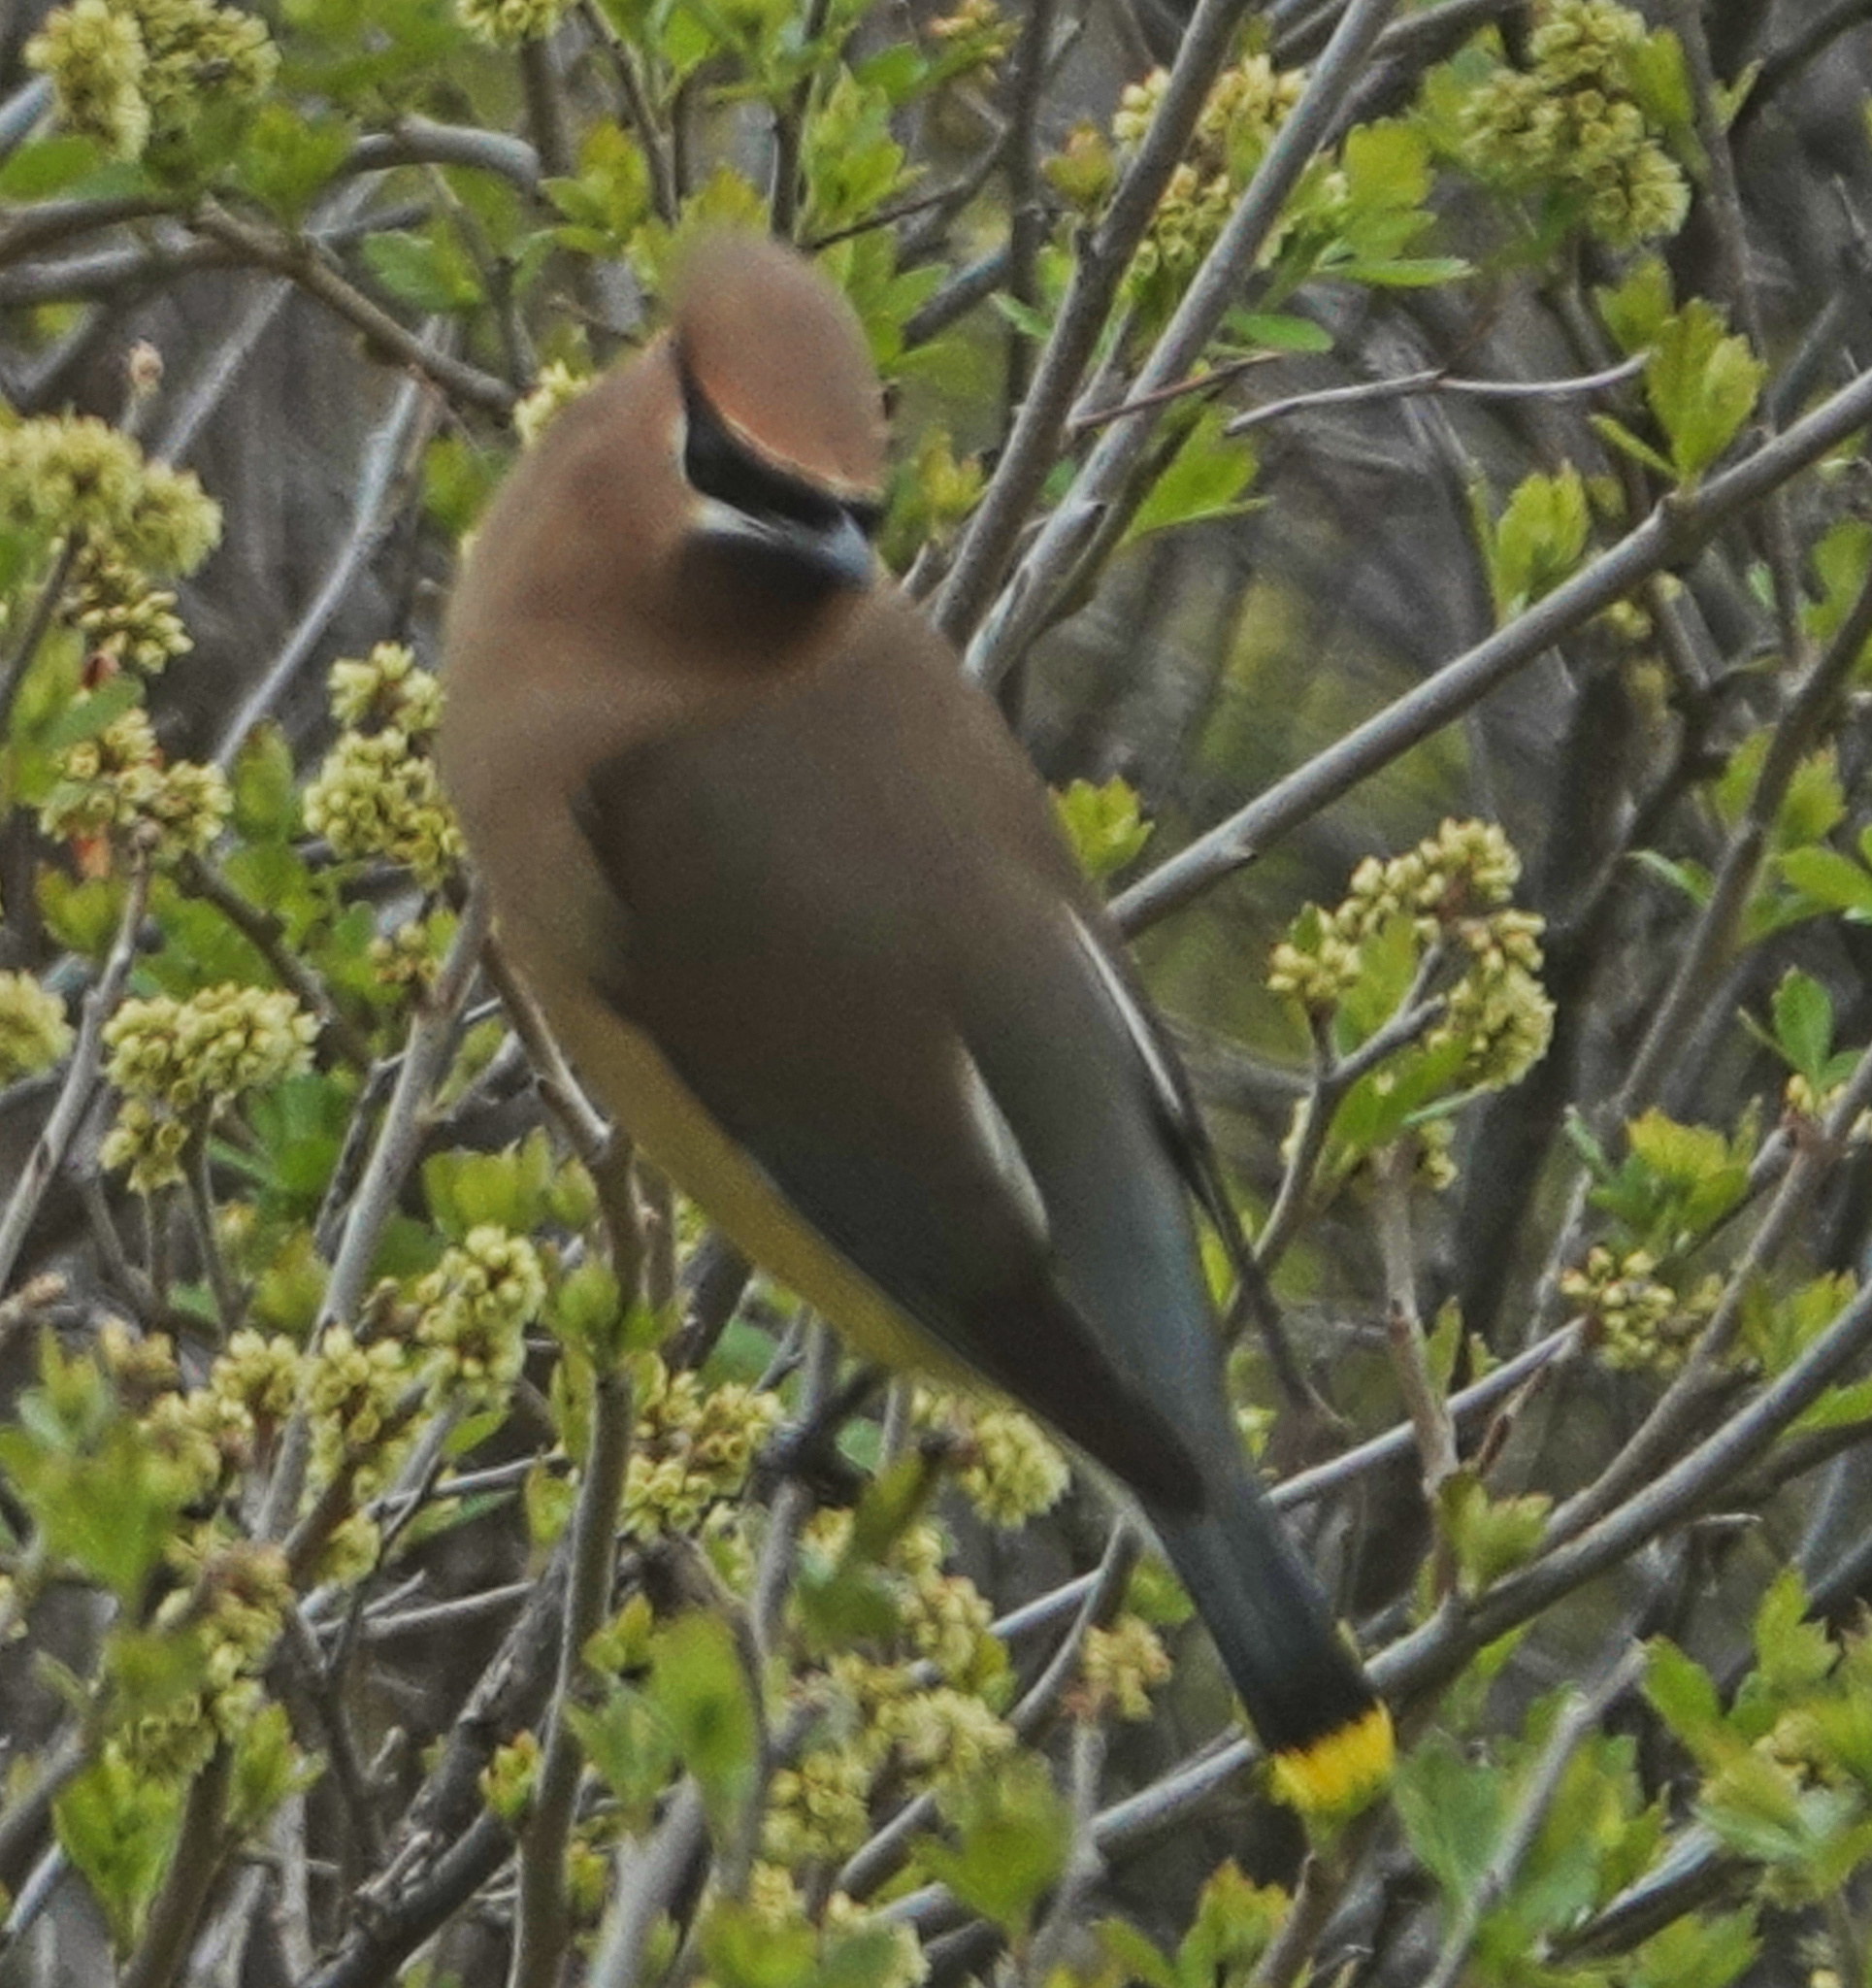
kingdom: Animalia
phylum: Chordata
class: Aves
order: Passeriformes
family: Bombycillidae
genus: Bombycilla
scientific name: Bombycilla cedrorum
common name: Cedar waxwing
